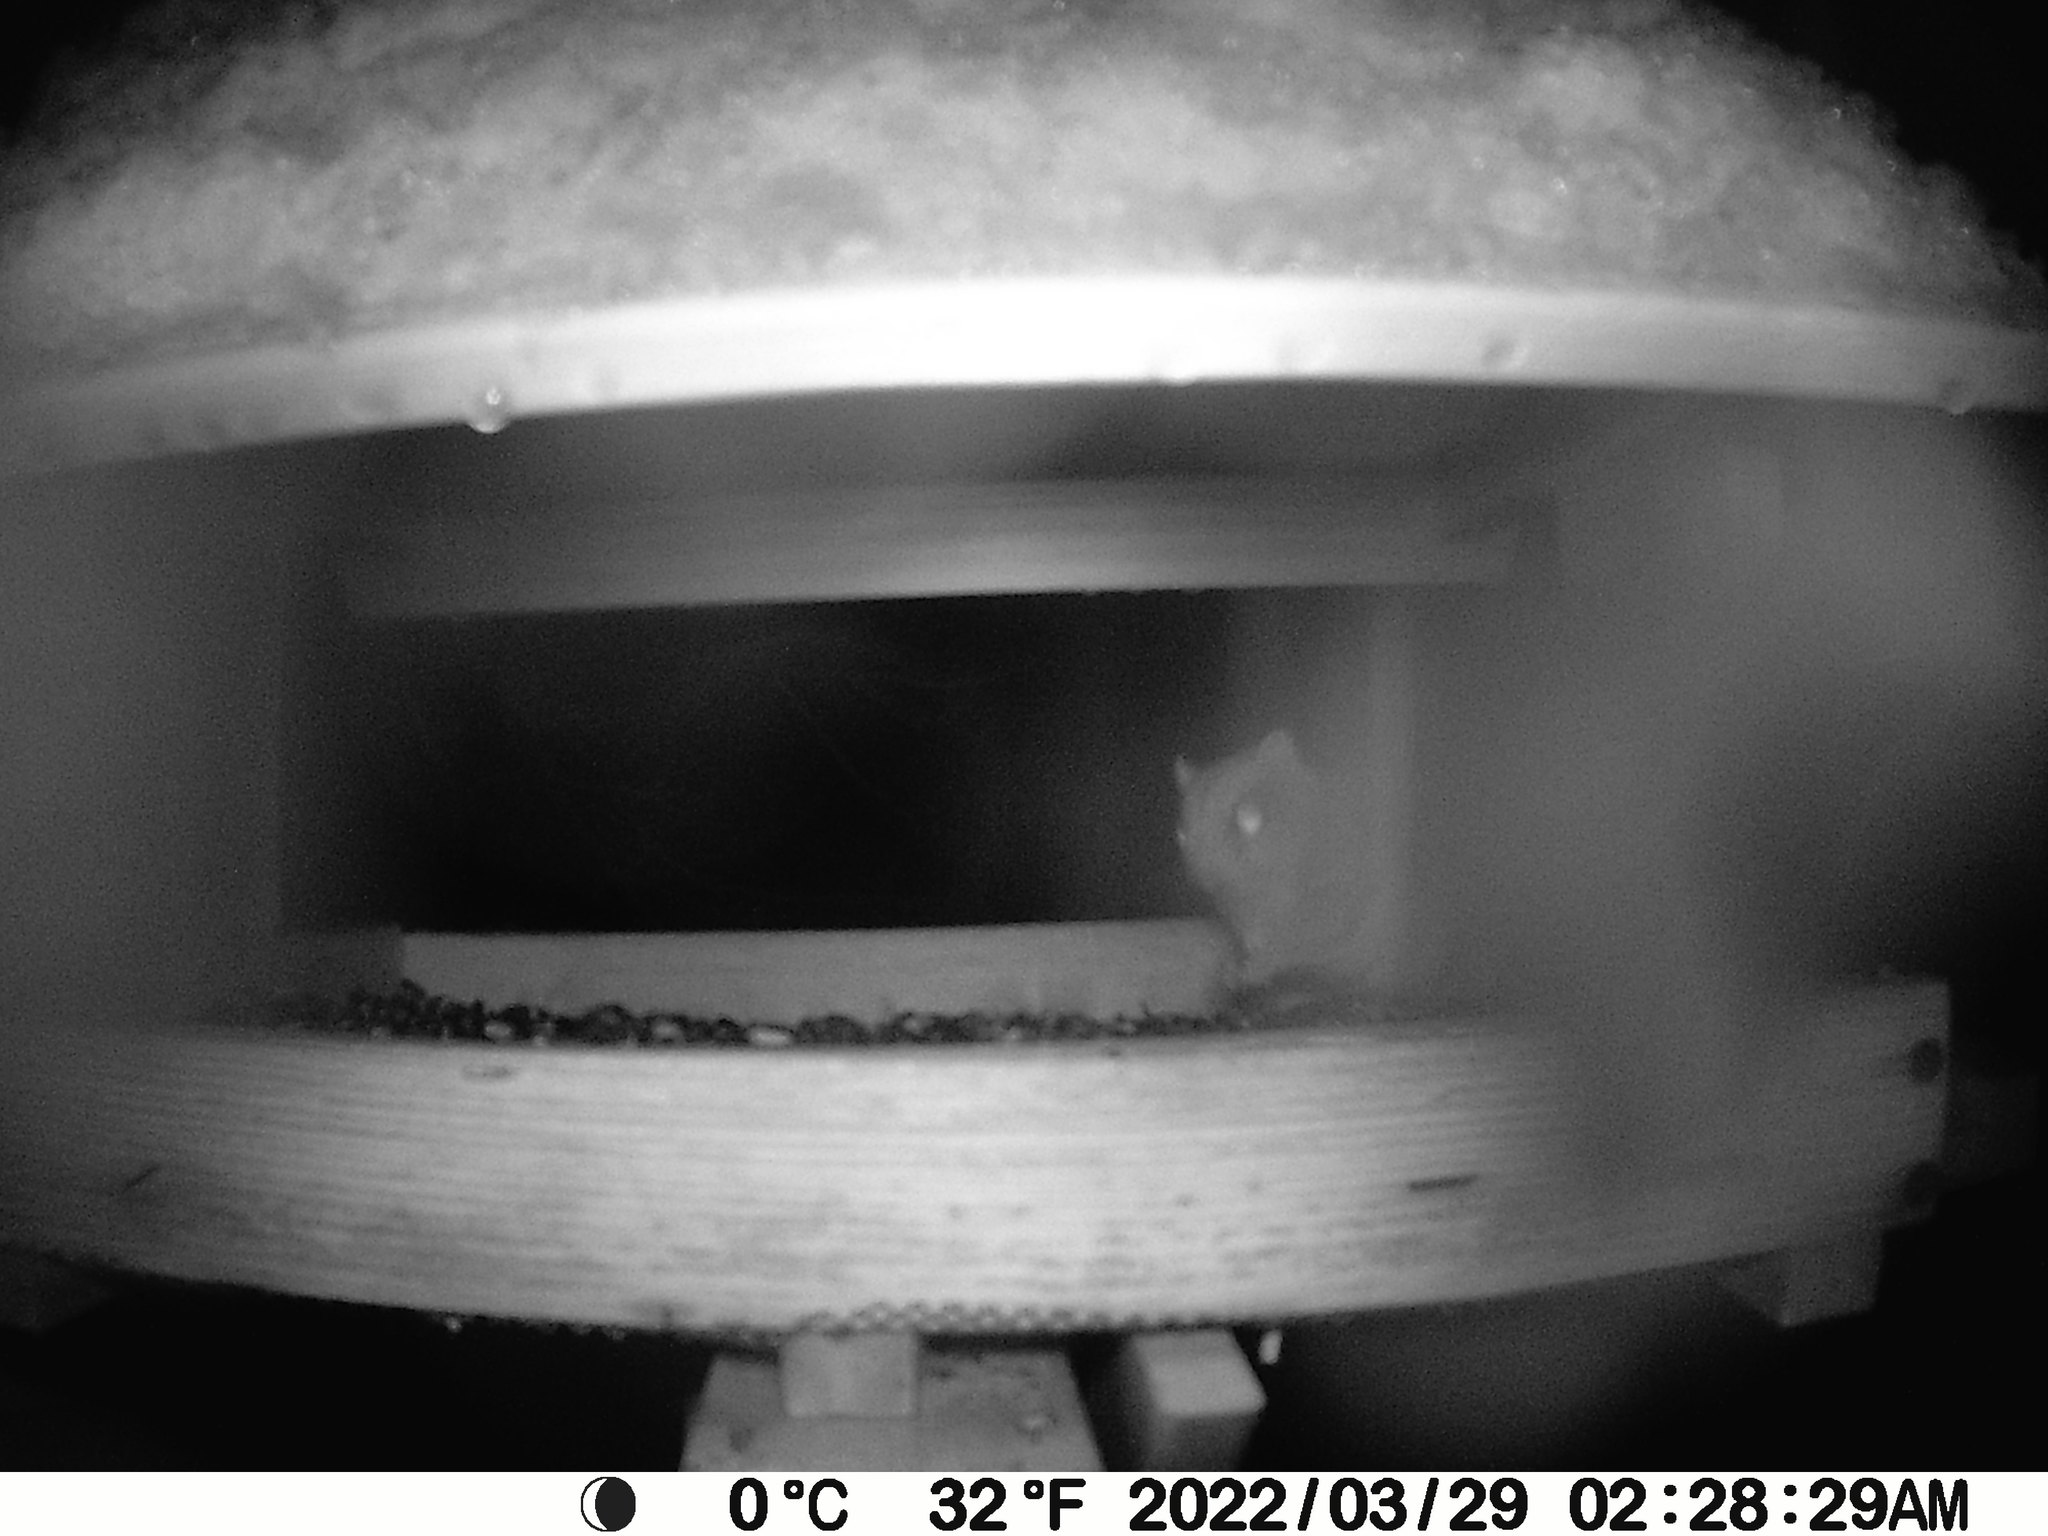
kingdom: Animalia
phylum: Chordata
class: Mammalia
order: Rodentia
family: Sciuridae
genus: Glaucomys
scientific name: Glaucomys sabrinus
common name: Northern flying squirrel
